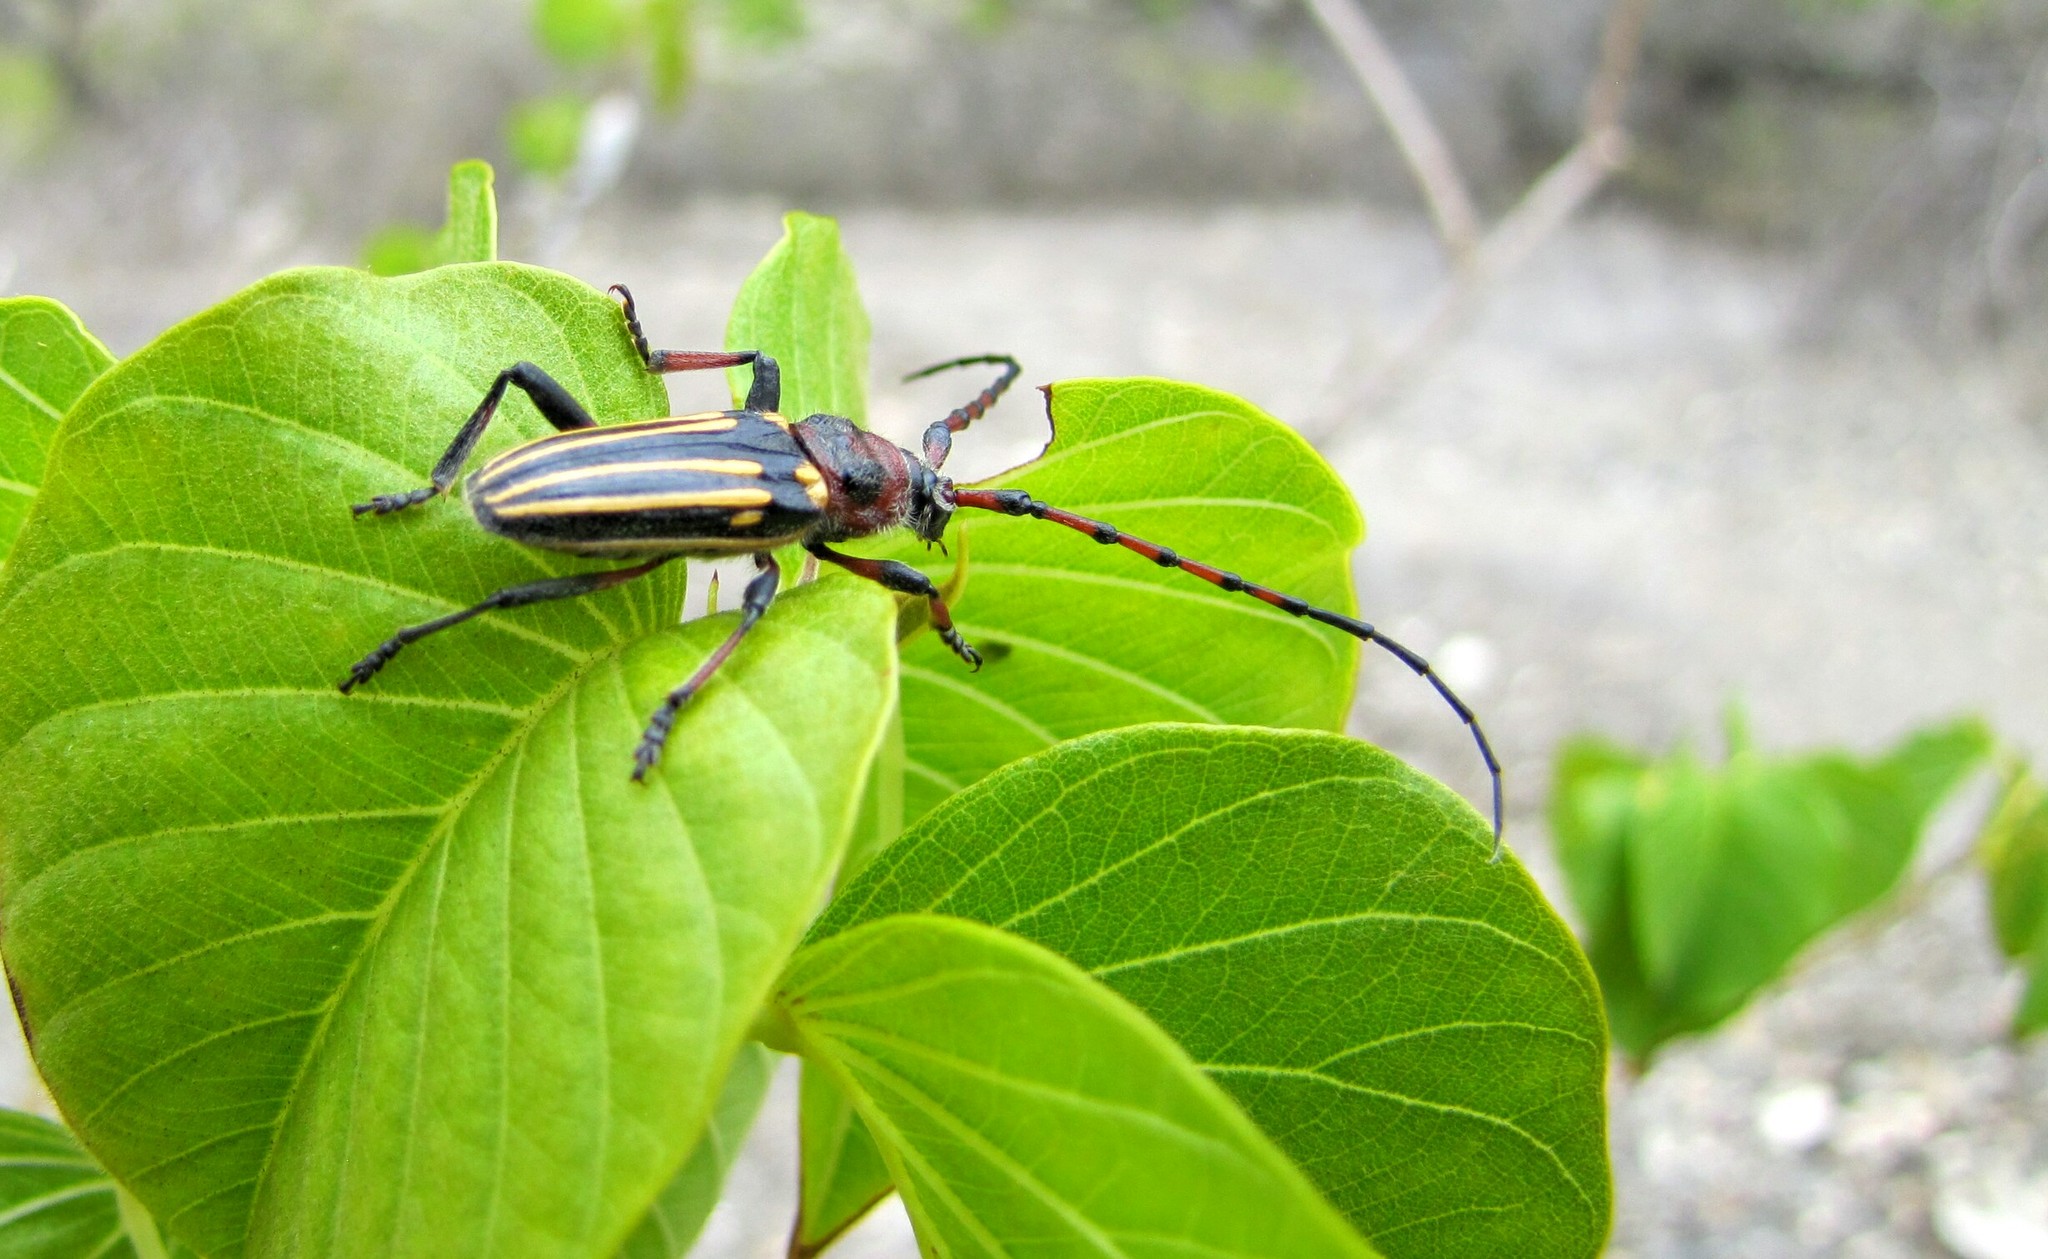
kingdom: Animalia
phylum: Arthropoda
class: Insecta
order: Coleoptera
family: Cerambycidae
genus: Eriocharis
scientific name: Eriocharis devestivus
